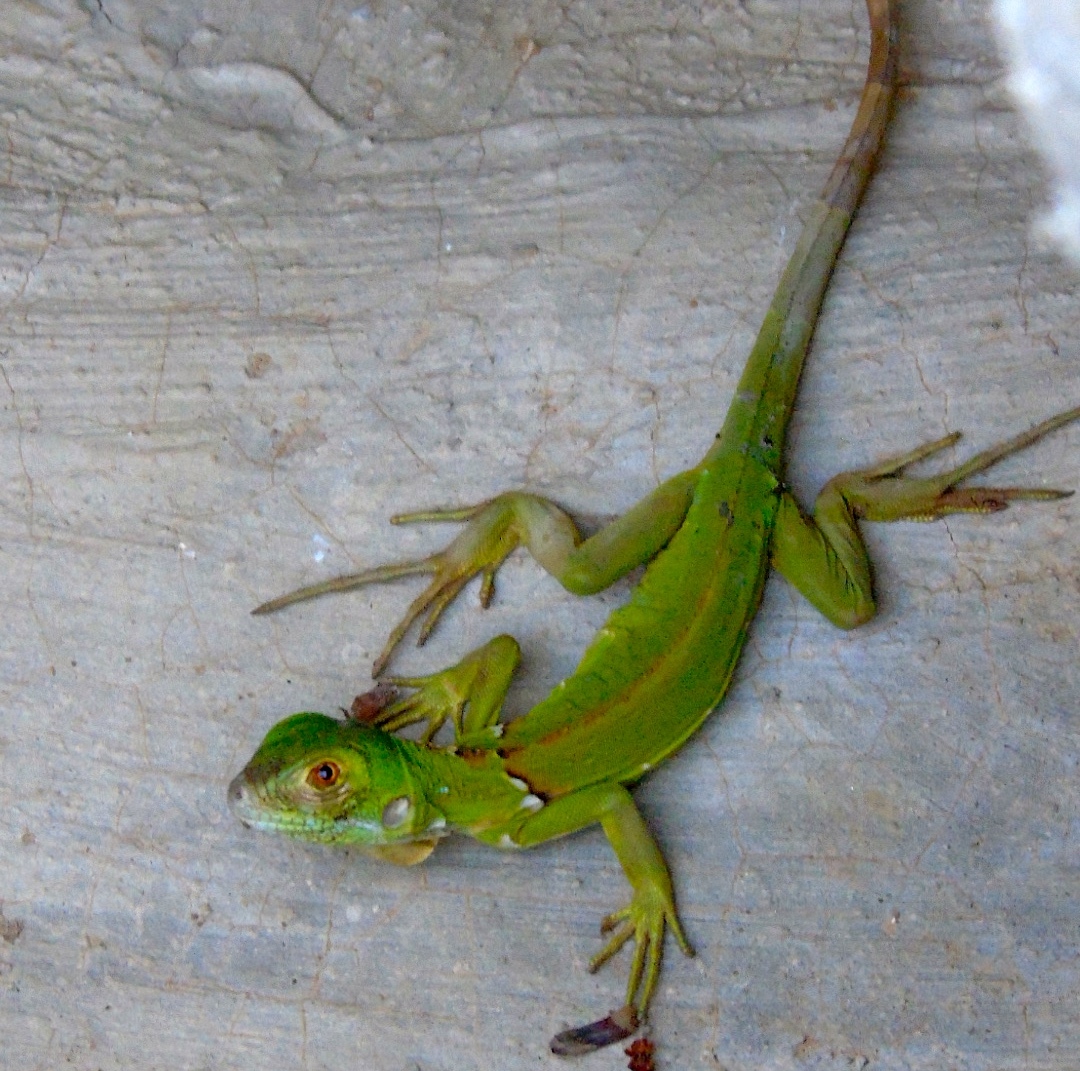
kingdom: Animalia
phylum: Chordata
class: Squamata
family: Iguanidae
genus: Iguana
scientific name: Iguana iguana
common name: Green iguana
